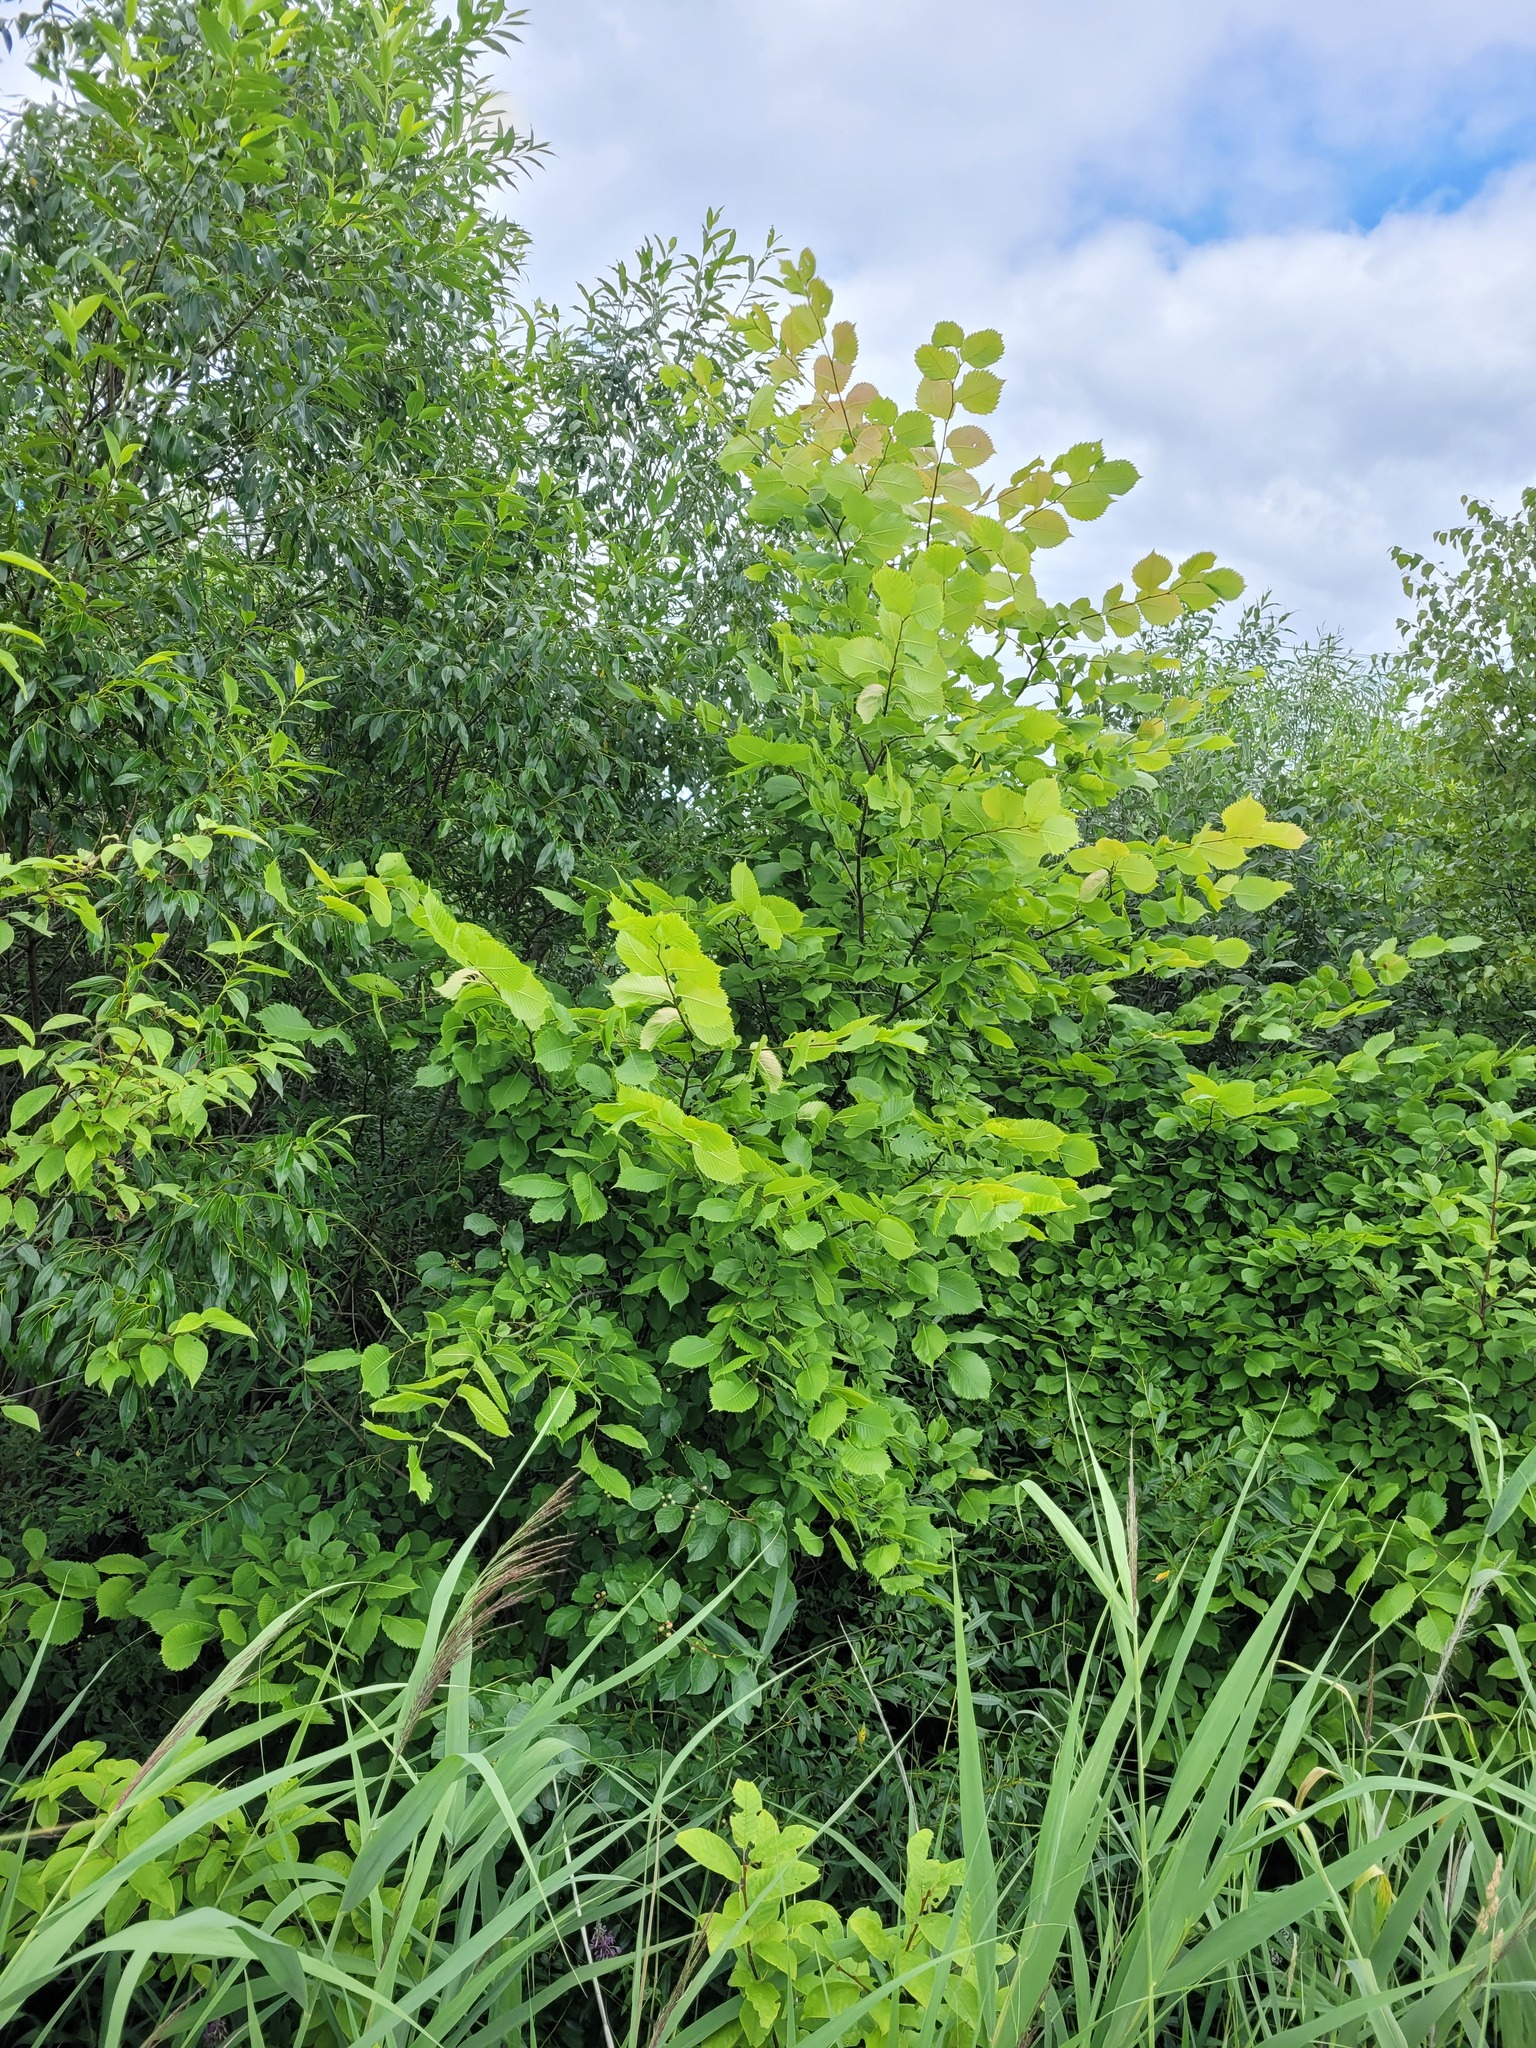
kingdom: Plantae
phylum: Tracheophyta
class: Magnoliopsida
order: Rosales
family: Ulmaceae
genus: Ulmus
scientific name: Ulmus laevis
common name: European white-elm
